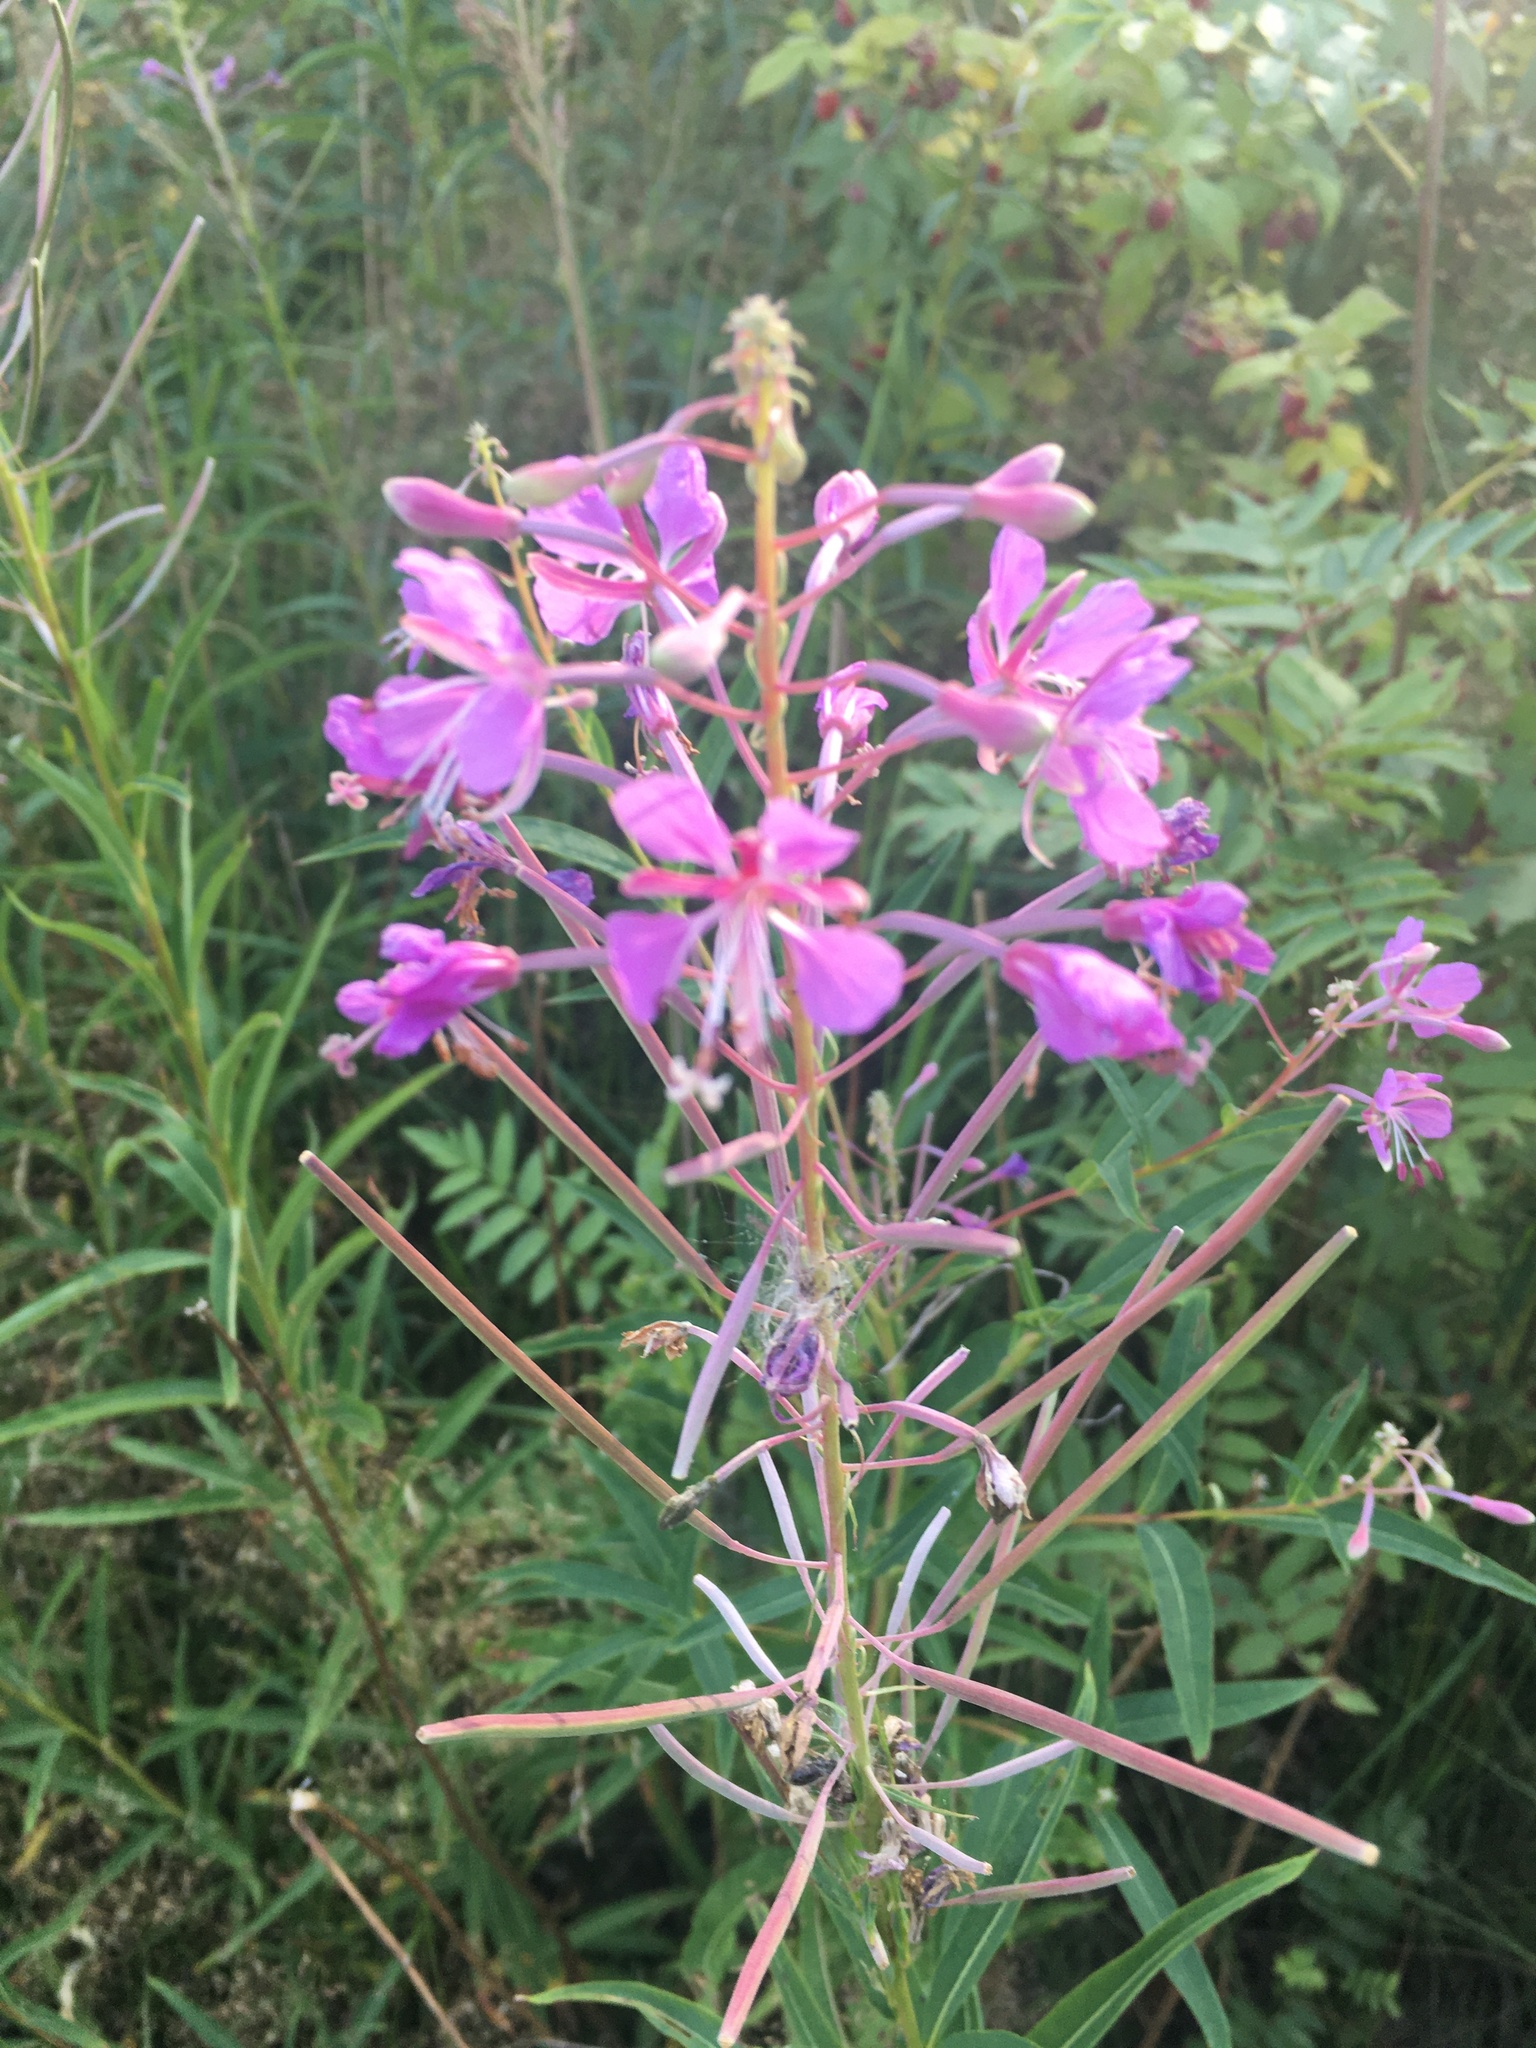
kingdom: Plantae
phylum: Tracheophyta
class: Magnoliopsida
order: Myrtales
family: Onagraceae
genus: Chamaenerion
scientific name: Chamaenerion angustifolium
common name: Fireweed
